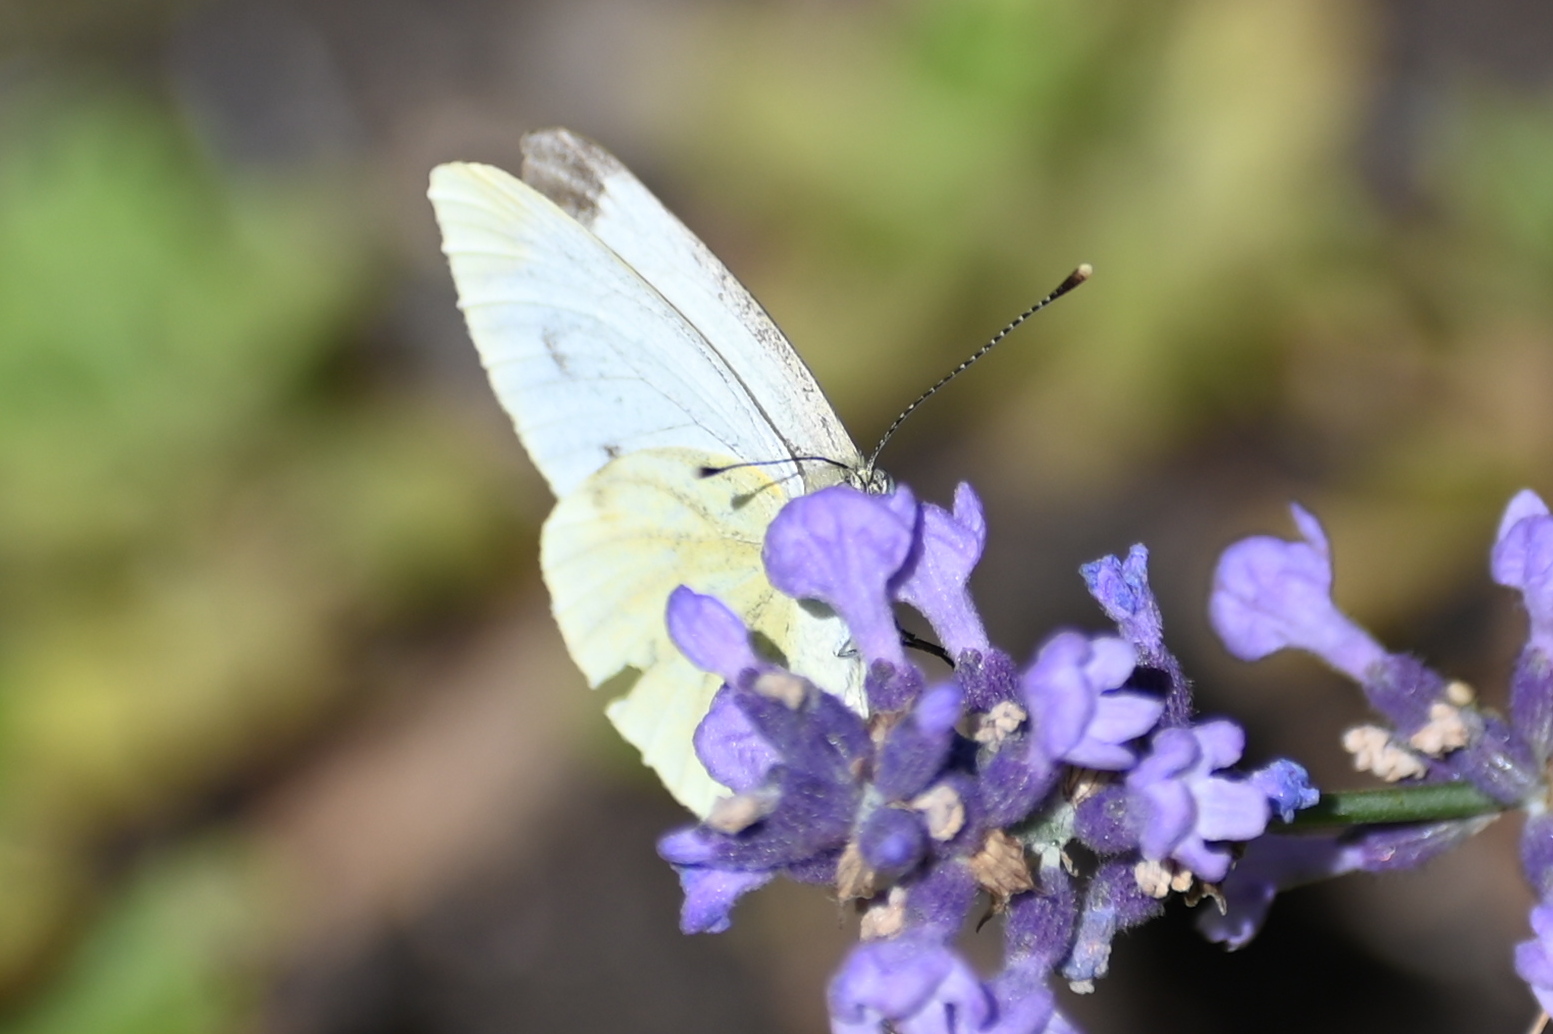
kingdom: Animalia
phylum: Arthropoda
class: Insecta
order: Lepidoptera
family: Pieridae
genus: Pieris
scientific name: Pieris napi
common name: Green-veined white
